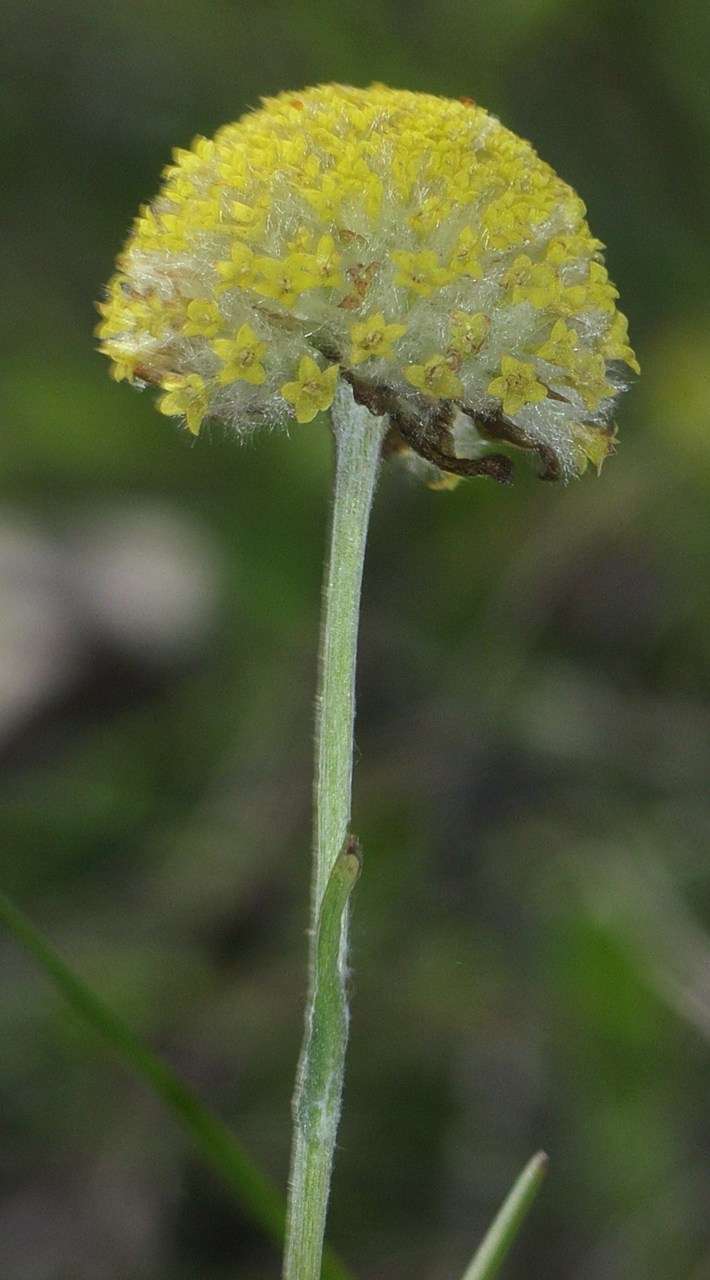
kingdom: Plantae
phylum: Tracheophyta
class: Magnoliopsida
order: Asterales
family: Asteraceae
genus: Craspedia
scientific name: Craspedia variabilis
